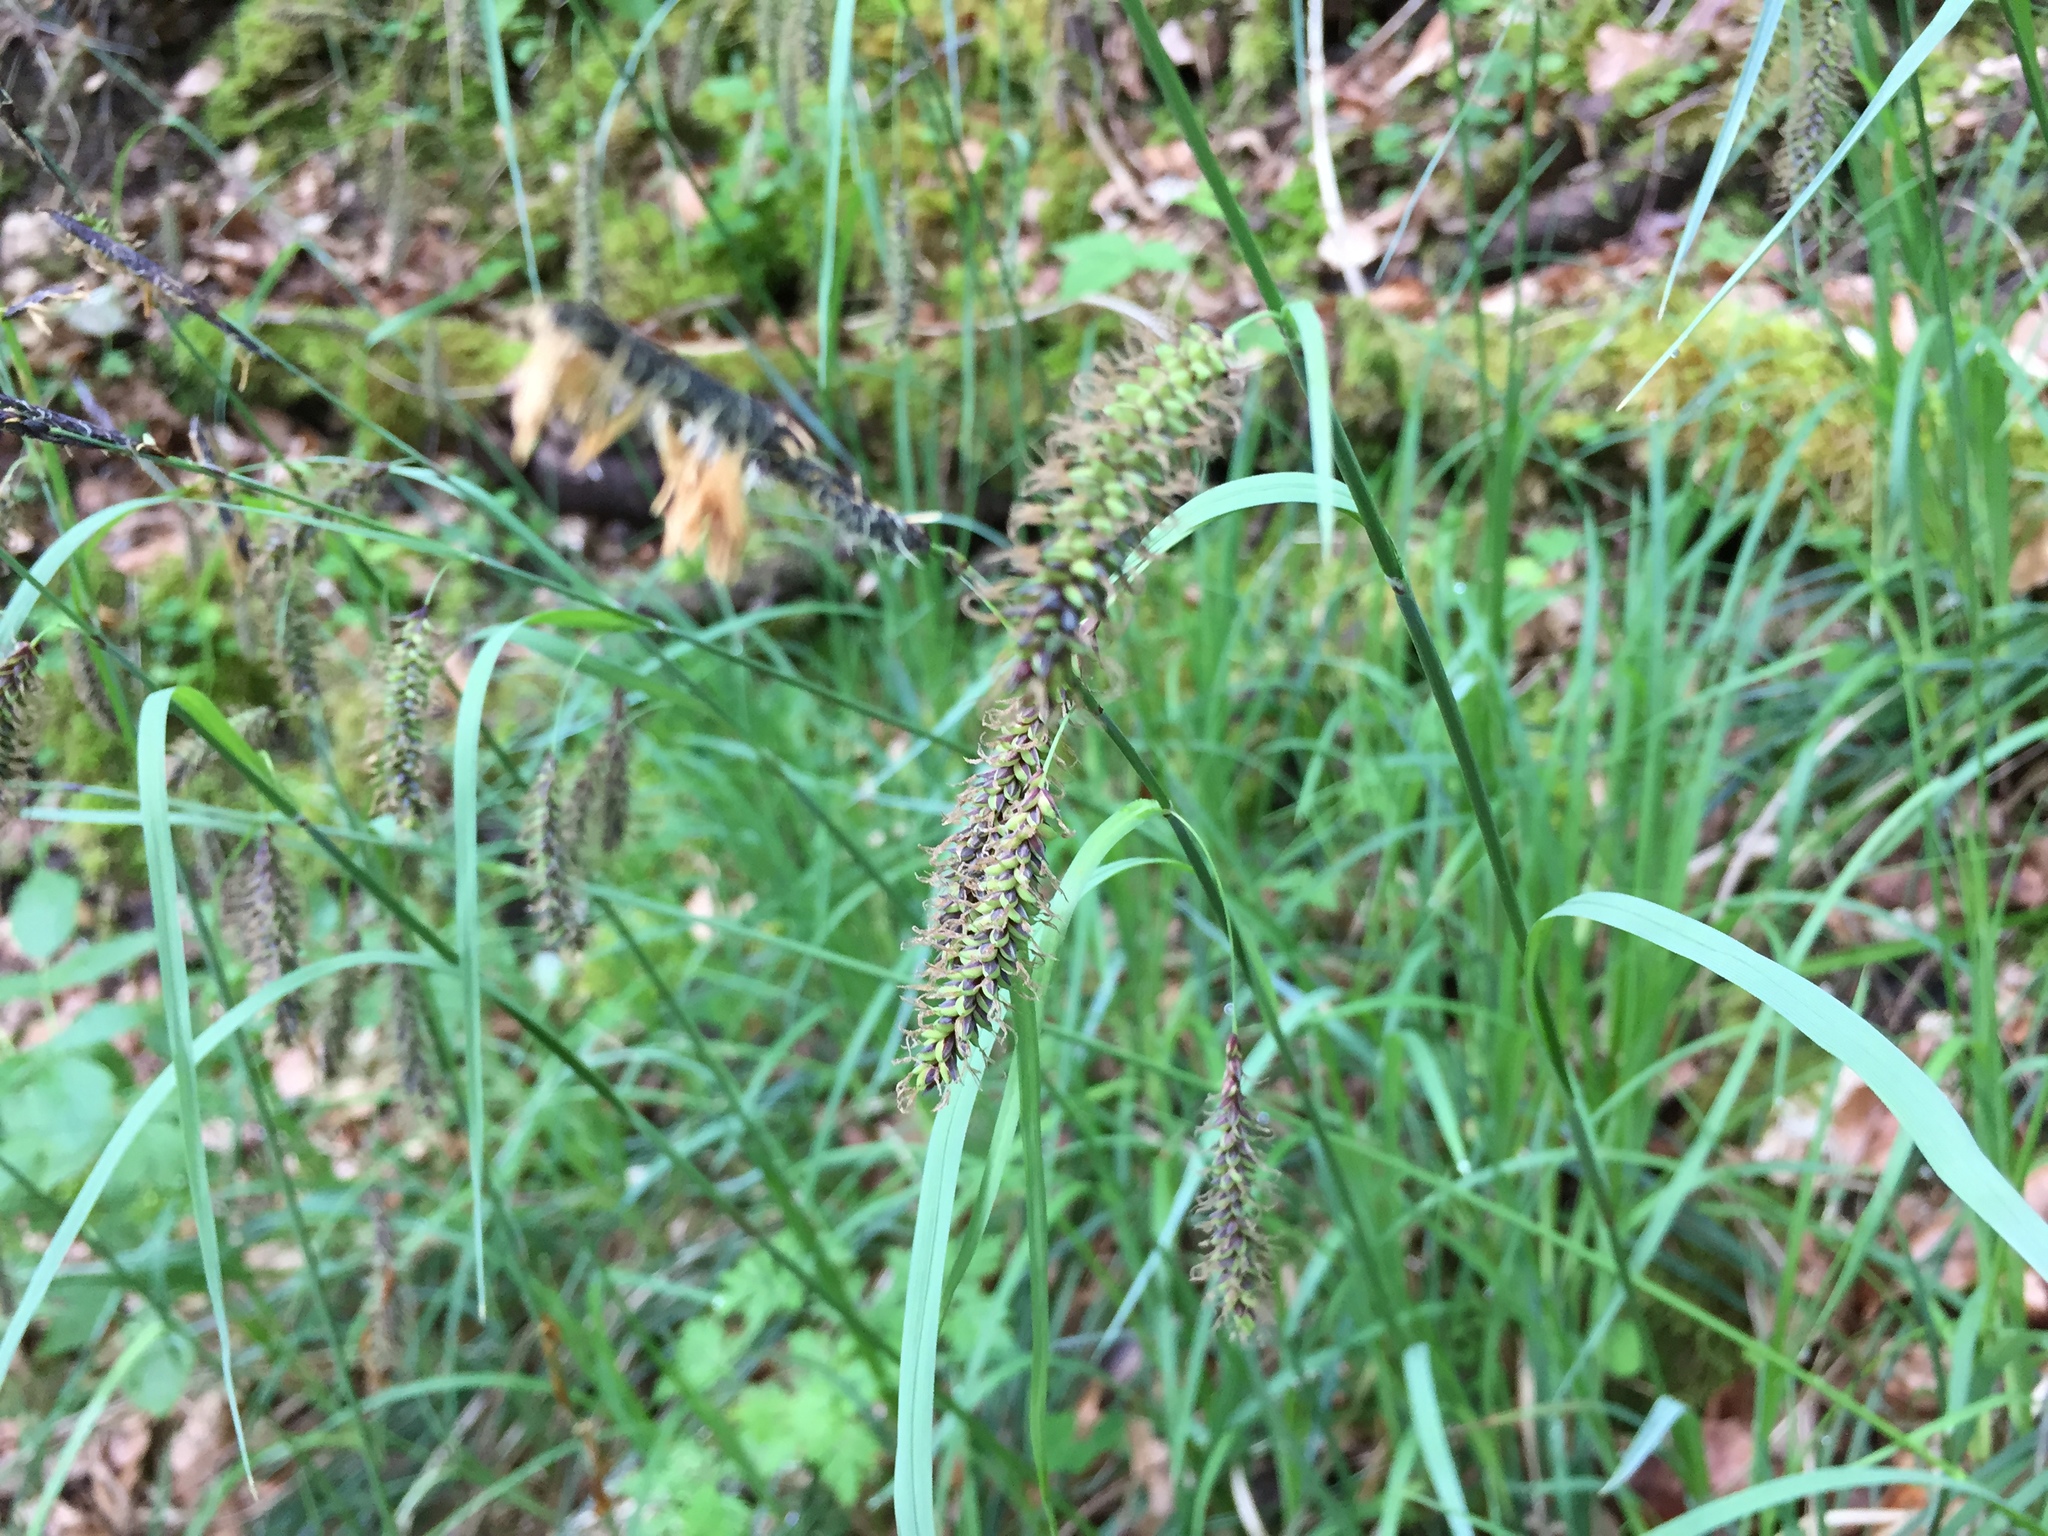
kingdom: Plantae
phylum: Tracheophyta
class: Liliopsida
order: Poales
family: Cyperaceae
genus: Carex
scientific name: Carex flacca
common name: Glaucous sedge
